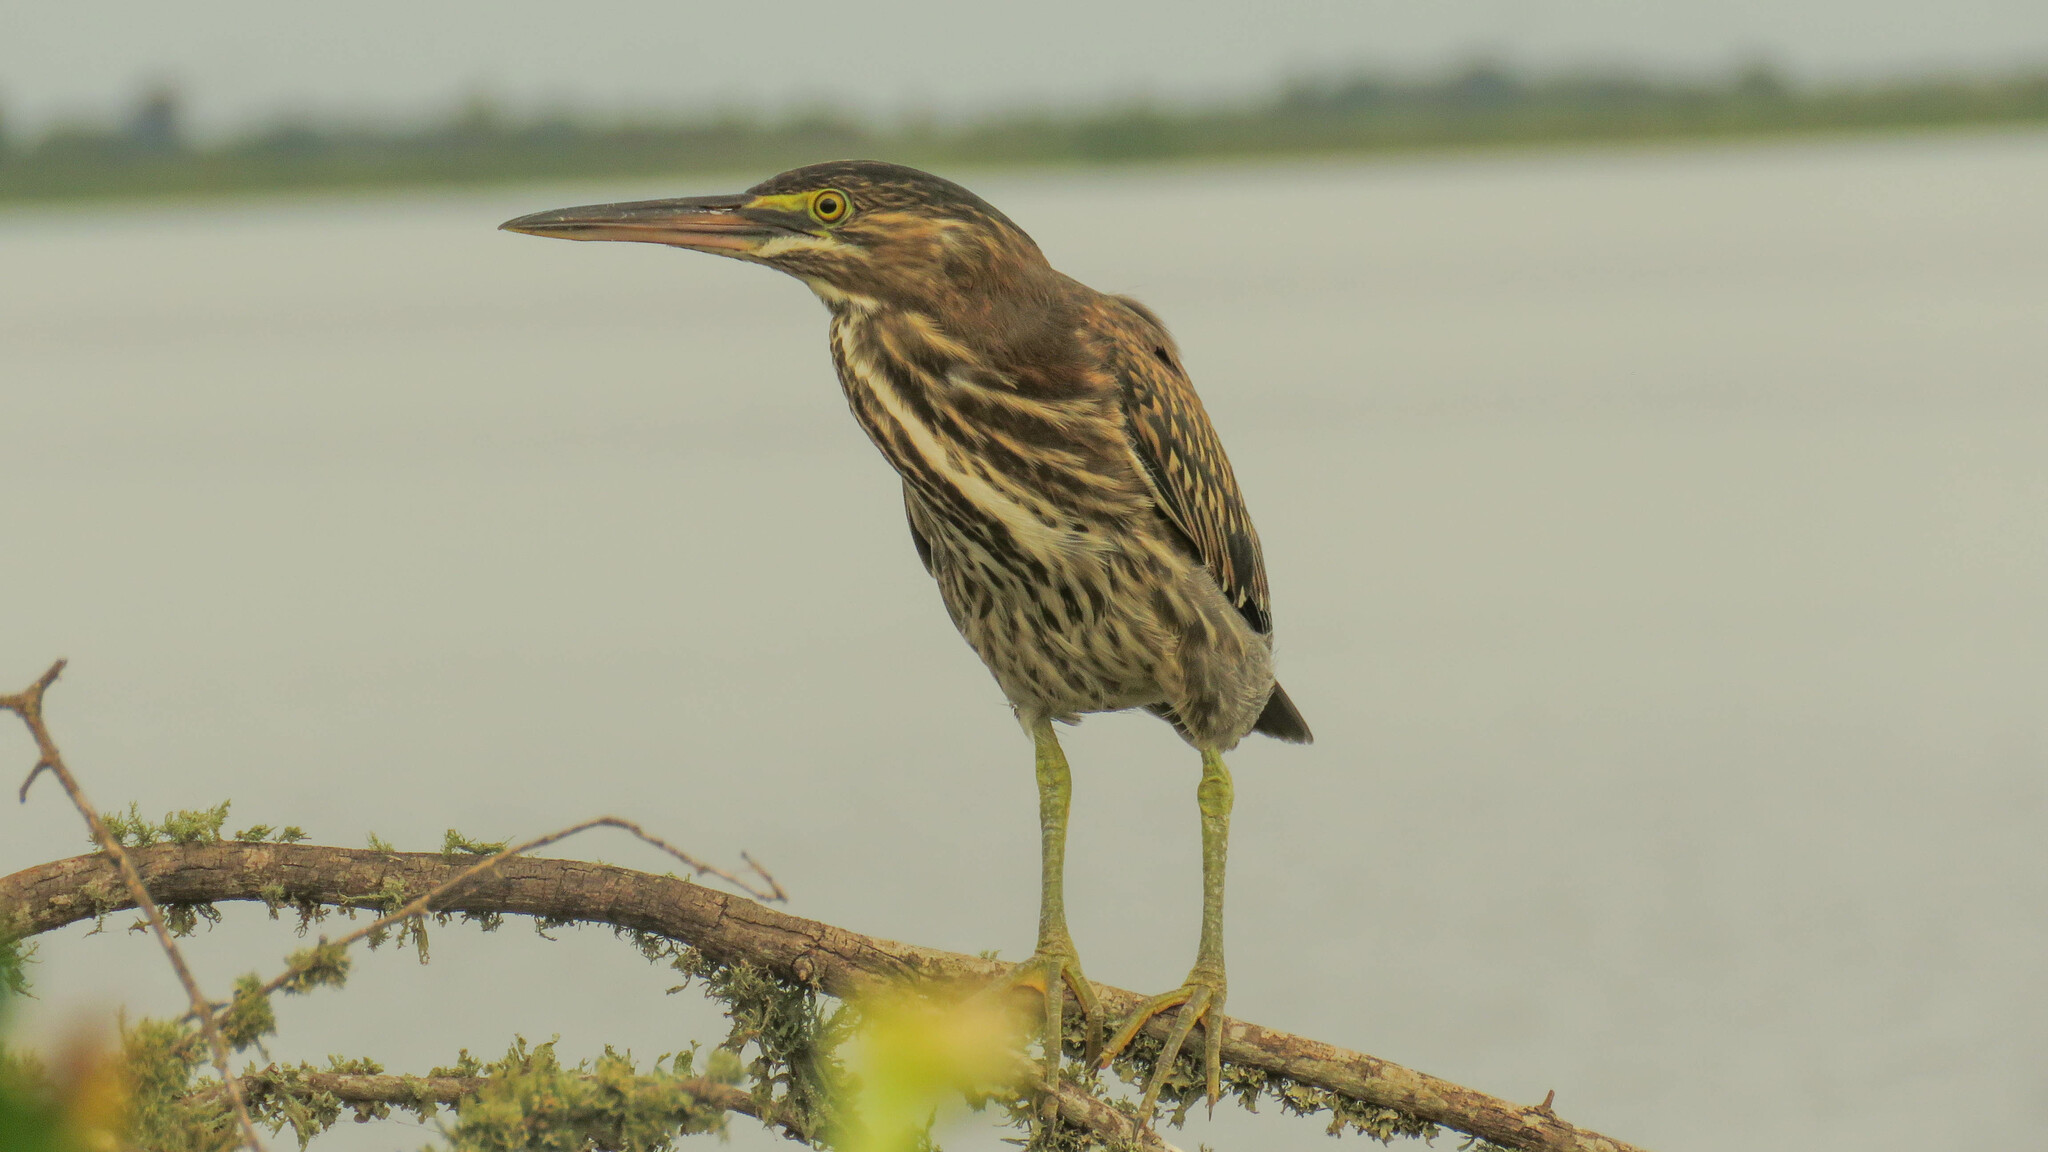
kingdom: Animalia
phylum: Chordata
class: Aves
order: Pelecaniformes
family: Ardeidae
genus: Butorides
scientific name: Butorides striata
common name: Striated heron
